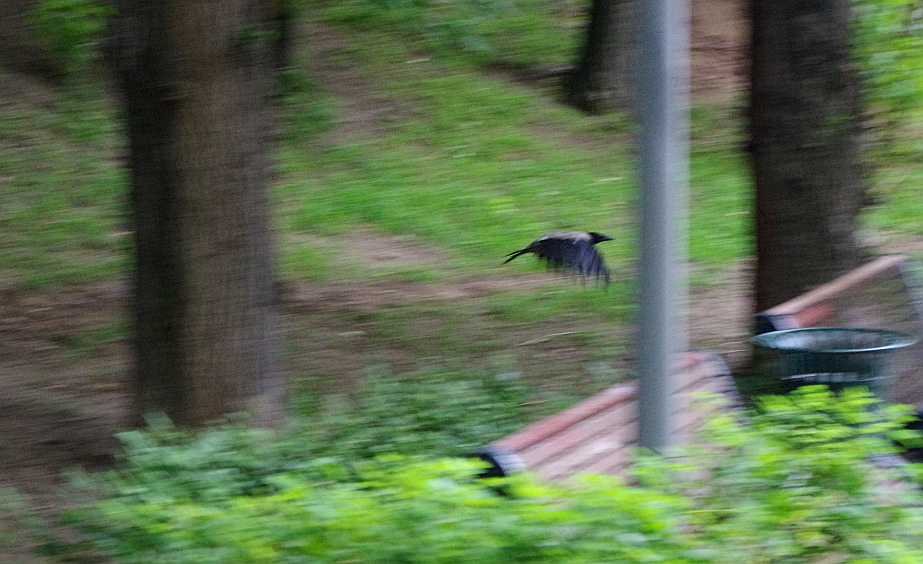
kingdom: Animalia
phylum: Chordata
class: Aves
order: Passeriformes
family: Corvidae
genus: Corvus
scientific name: Corvus cornix
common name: Hooded crow
